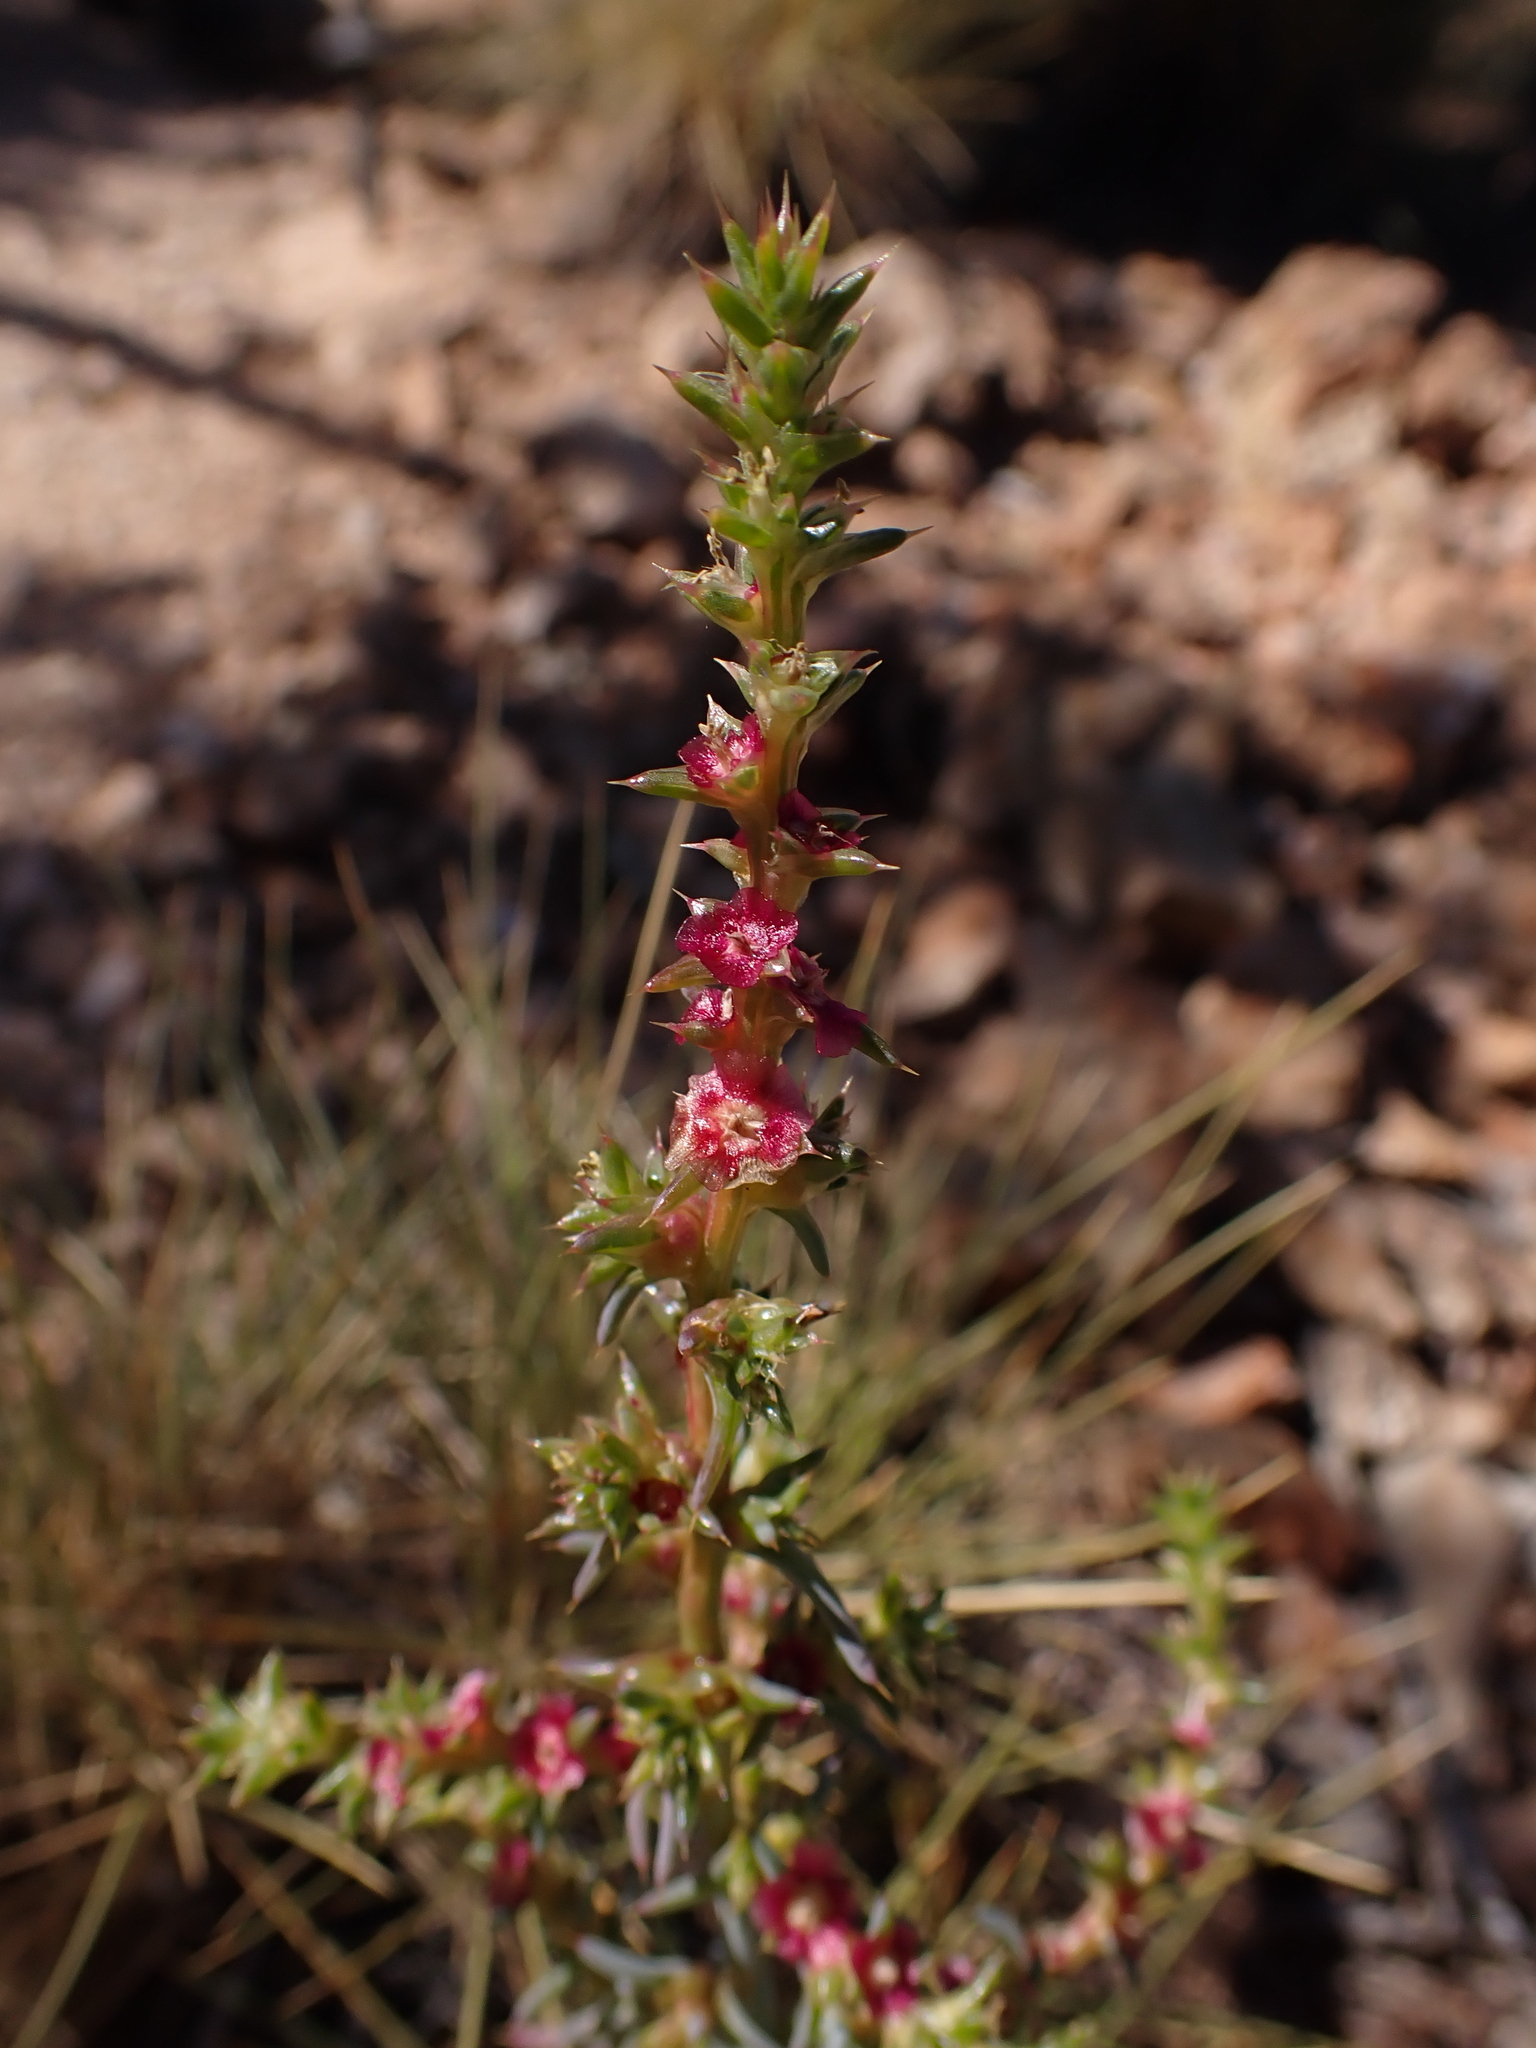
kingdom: Plantae
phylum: Tracheophyta
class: Magnoliopsida
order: Caryophyllales
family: Amaranthaceae
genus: Salsola
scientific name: Salsola australis
